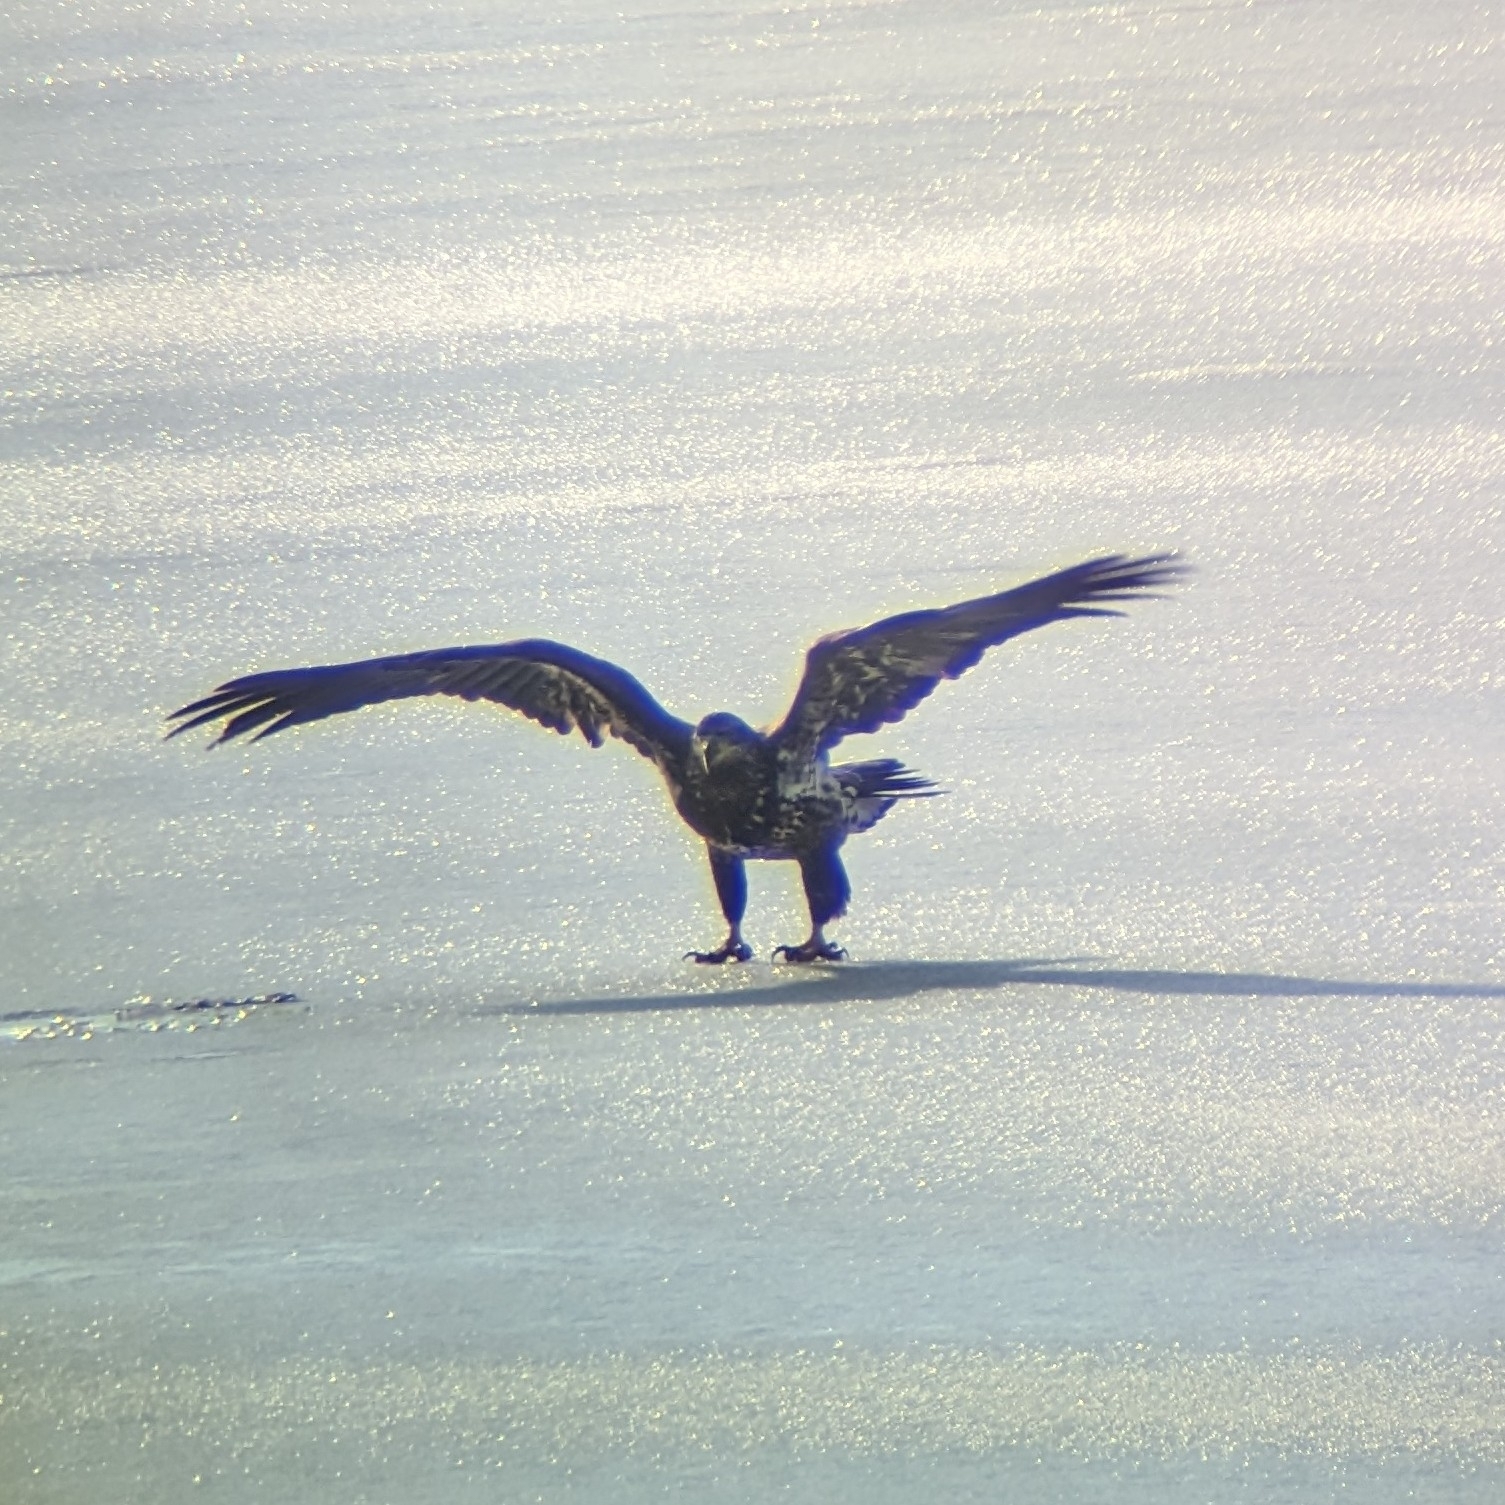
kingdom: Animalia
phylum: Chordata
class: Aves
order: Accipitriformes
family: Accipitridae
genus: Haliaeetus
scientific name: Haliaeetus leucocephalus
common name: Bald eagle
